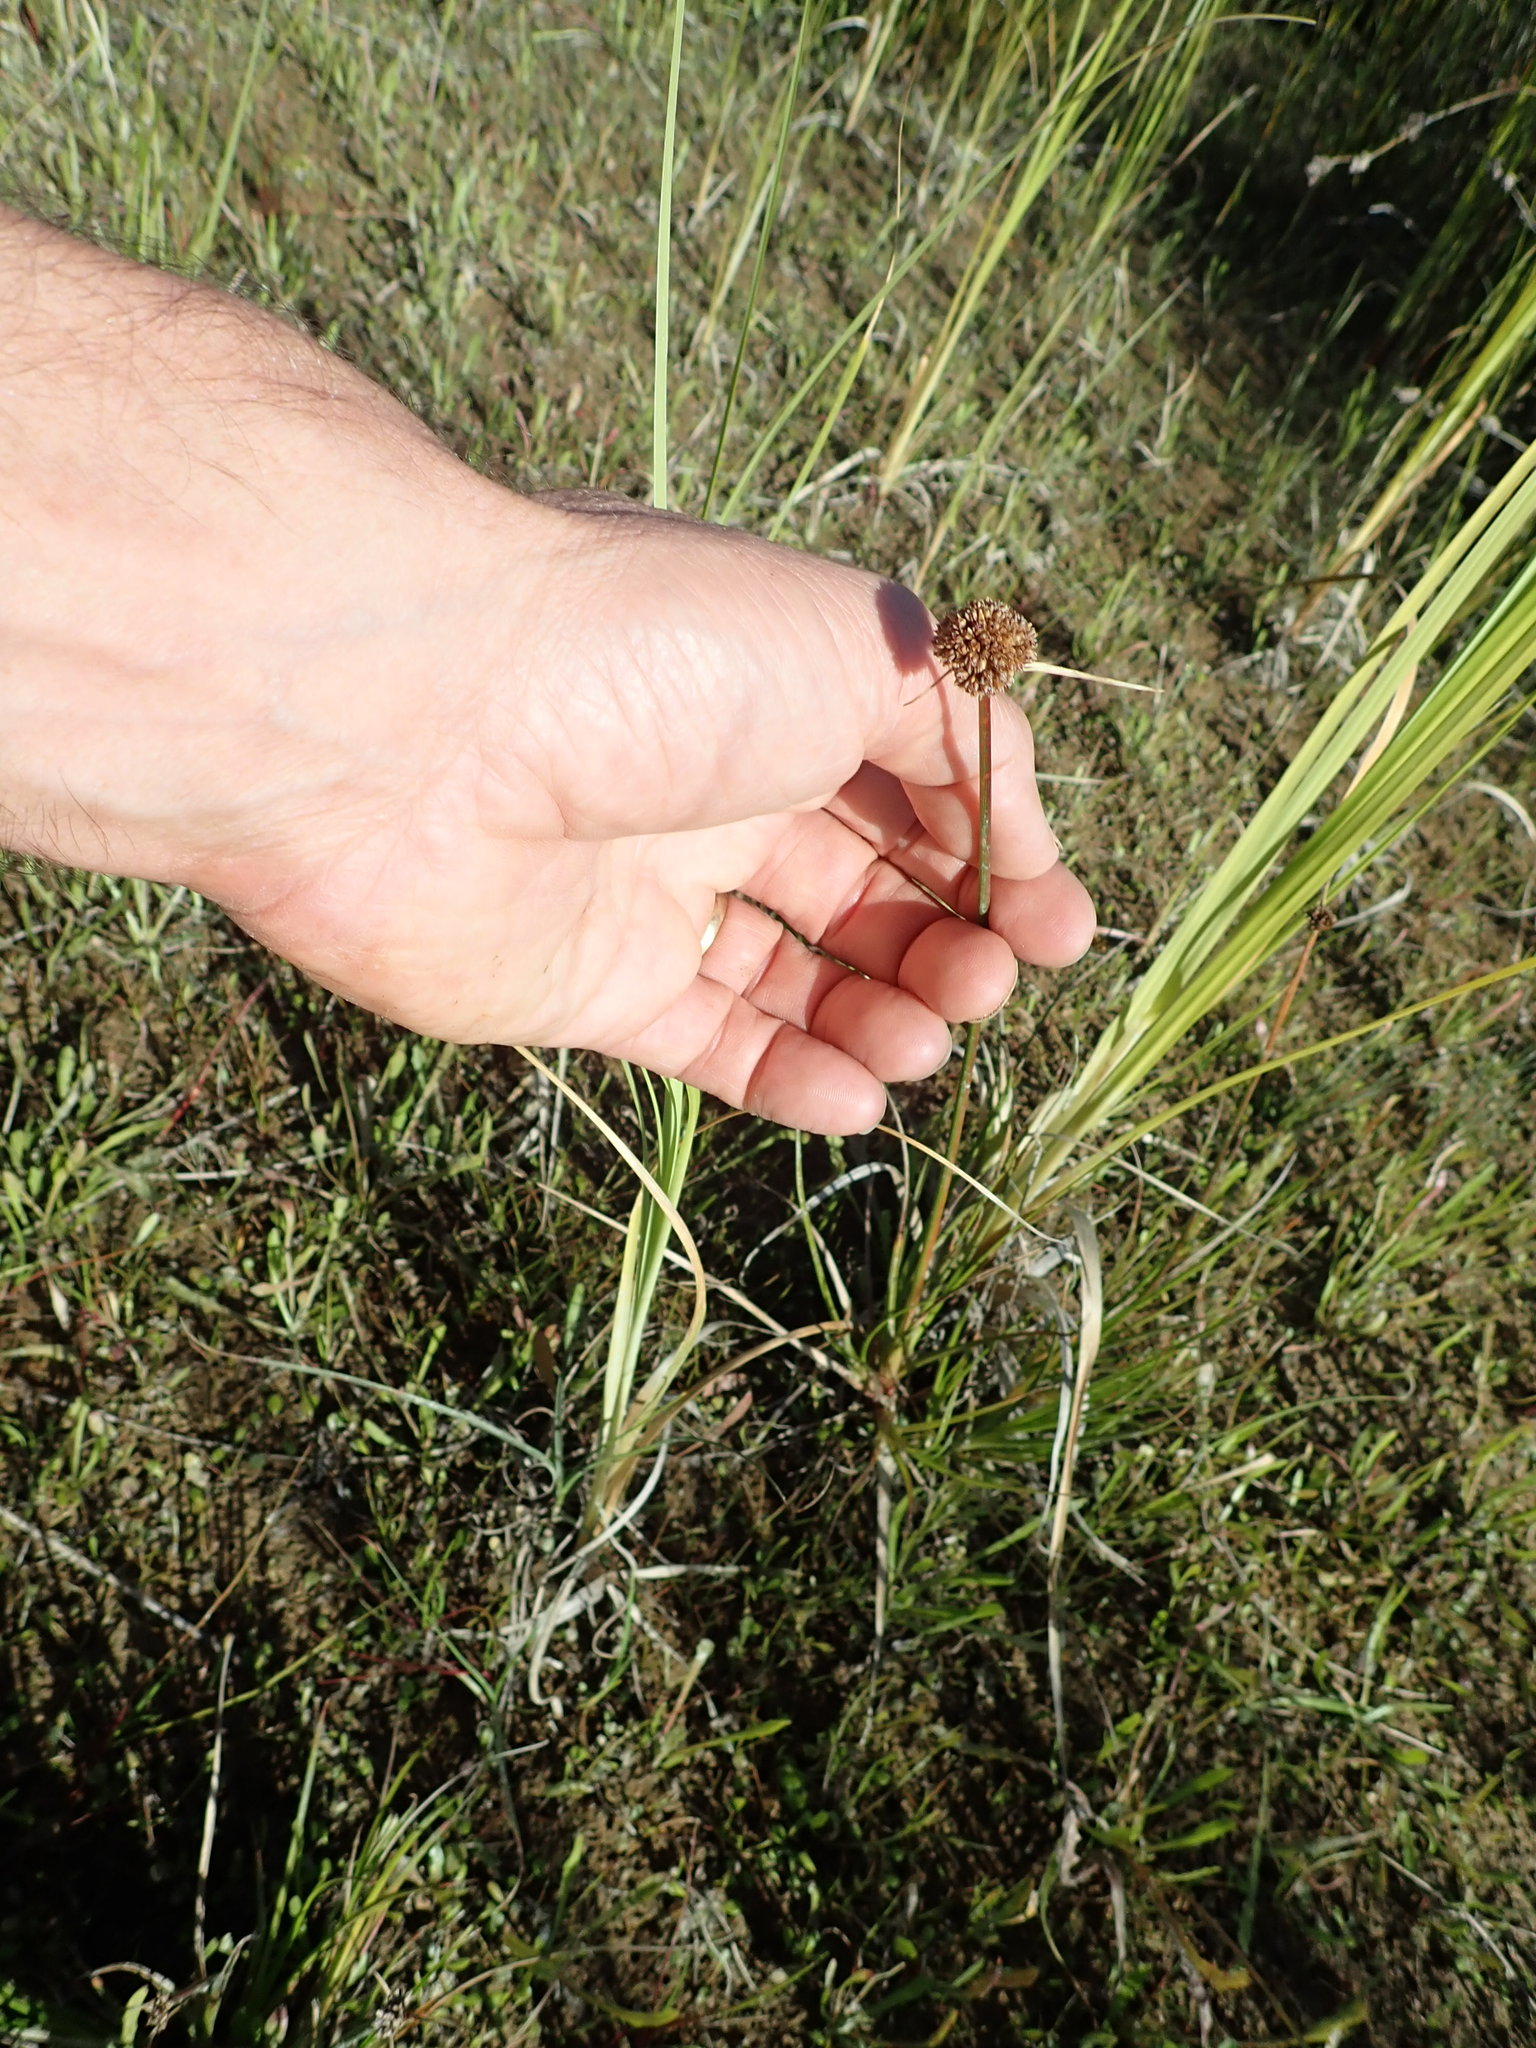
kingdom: Plantae
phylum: Tracheophyta
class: Liliopsida
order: Poales
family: Juncaceae
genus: Juncus
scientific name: Juncus caespiticius
